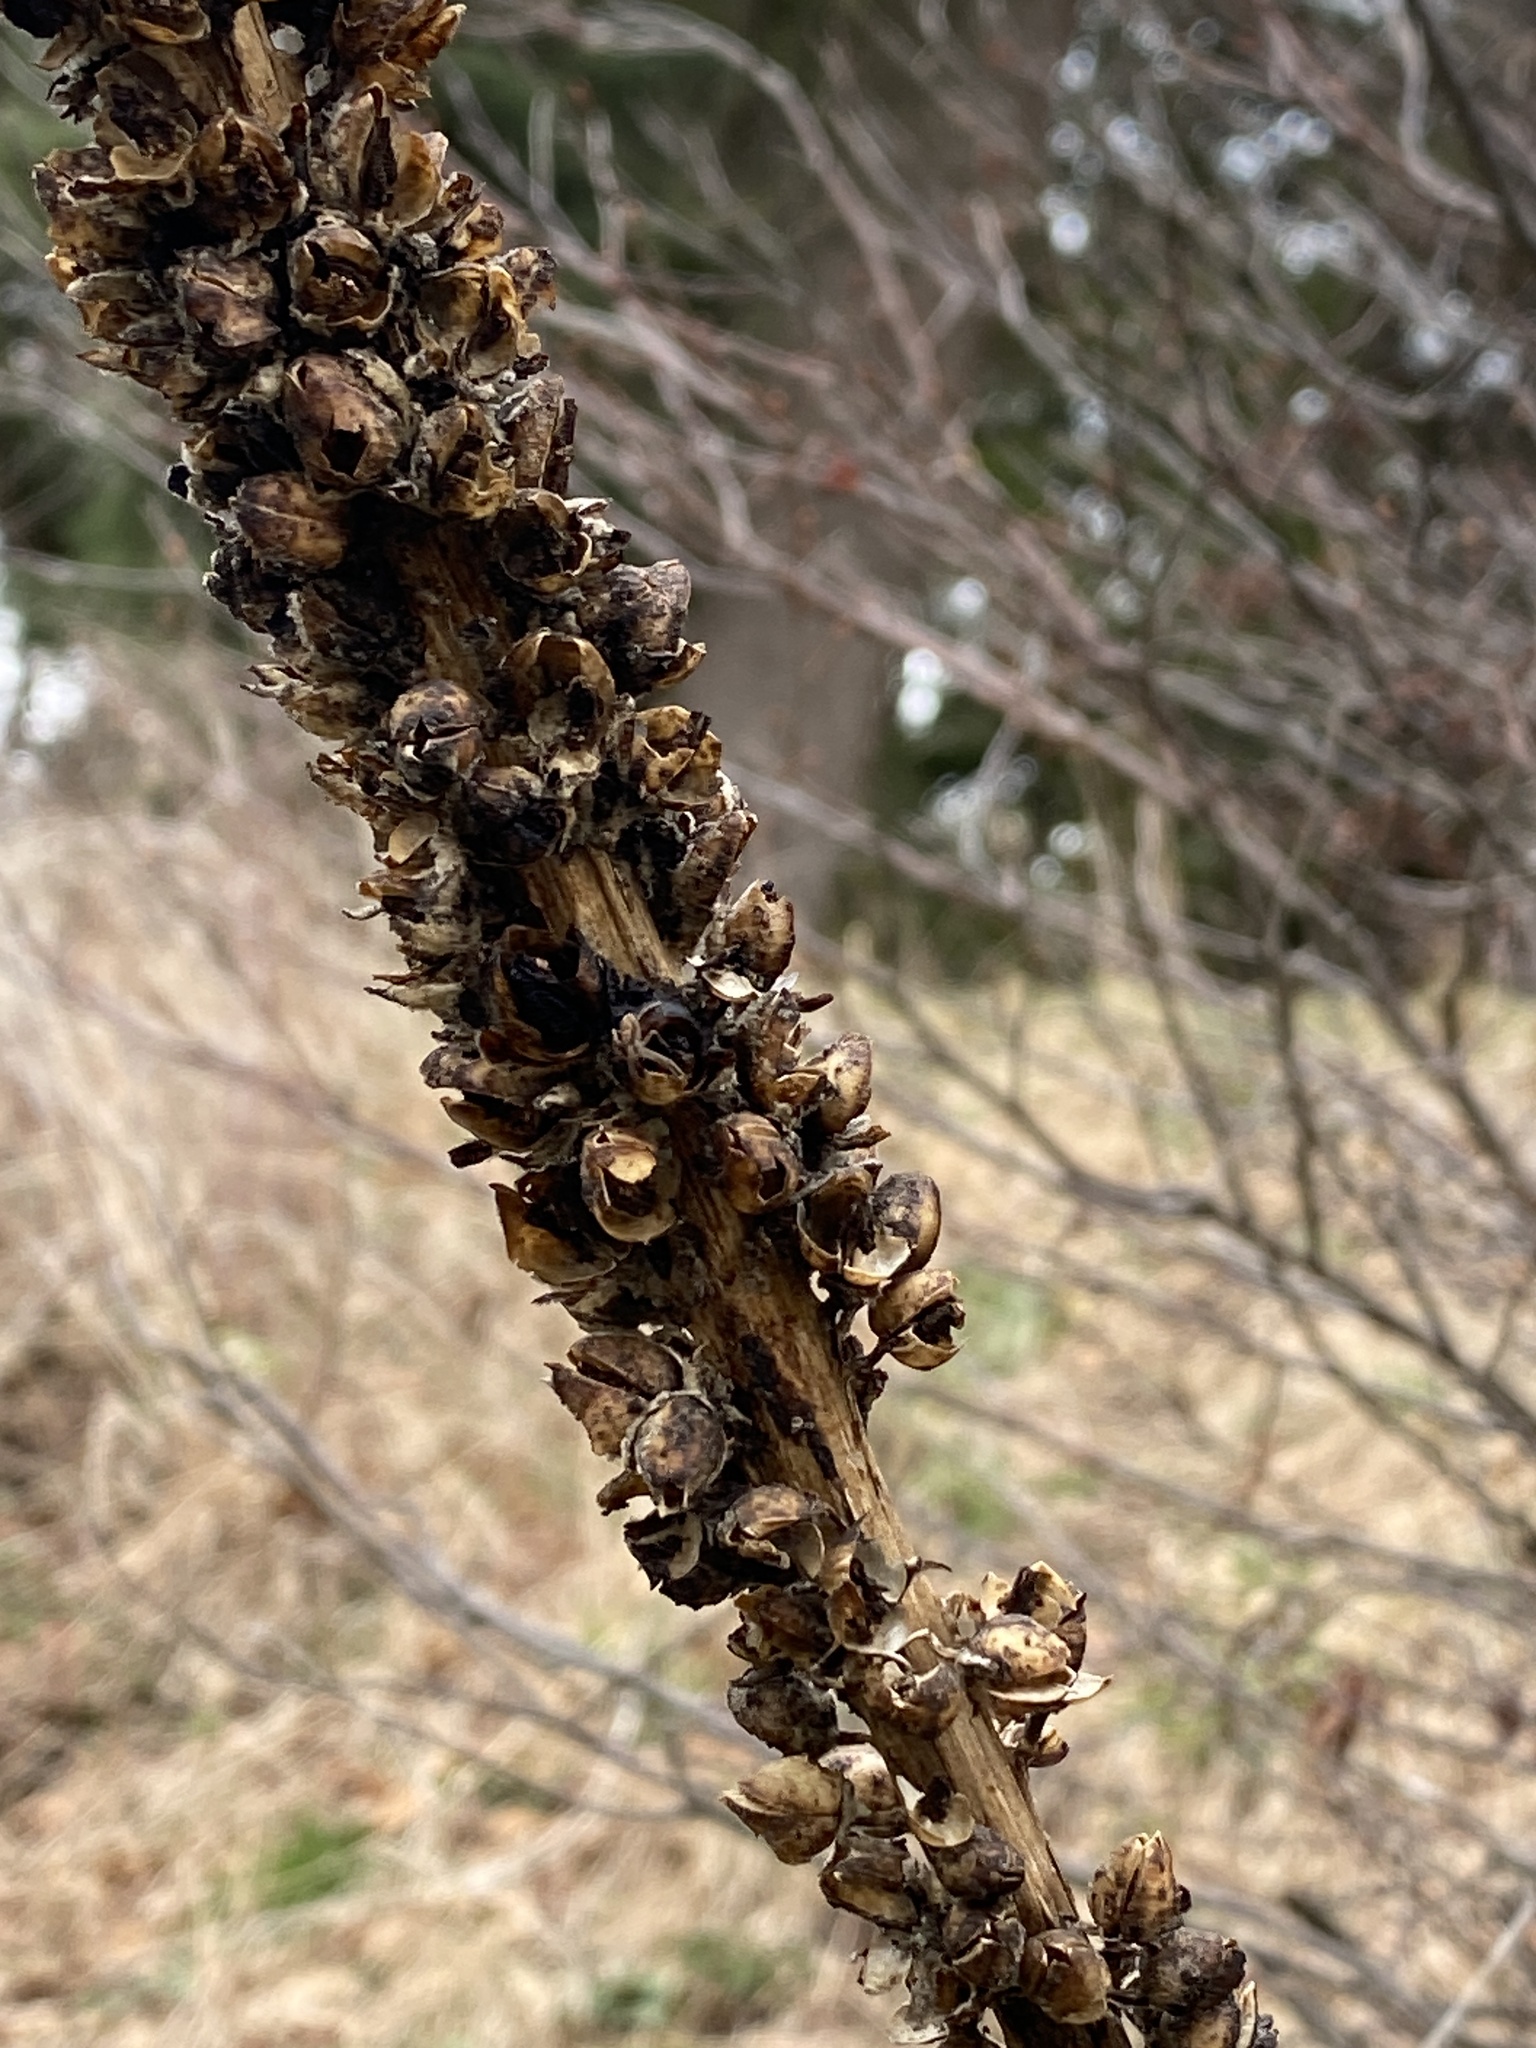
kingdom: Plantae
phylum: Tracheophyta
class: Magnoliopsida
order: Lamiales
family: Scrophulariaceae
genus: Verbascum
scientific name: Verbascum thapsus
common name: Common mullein
